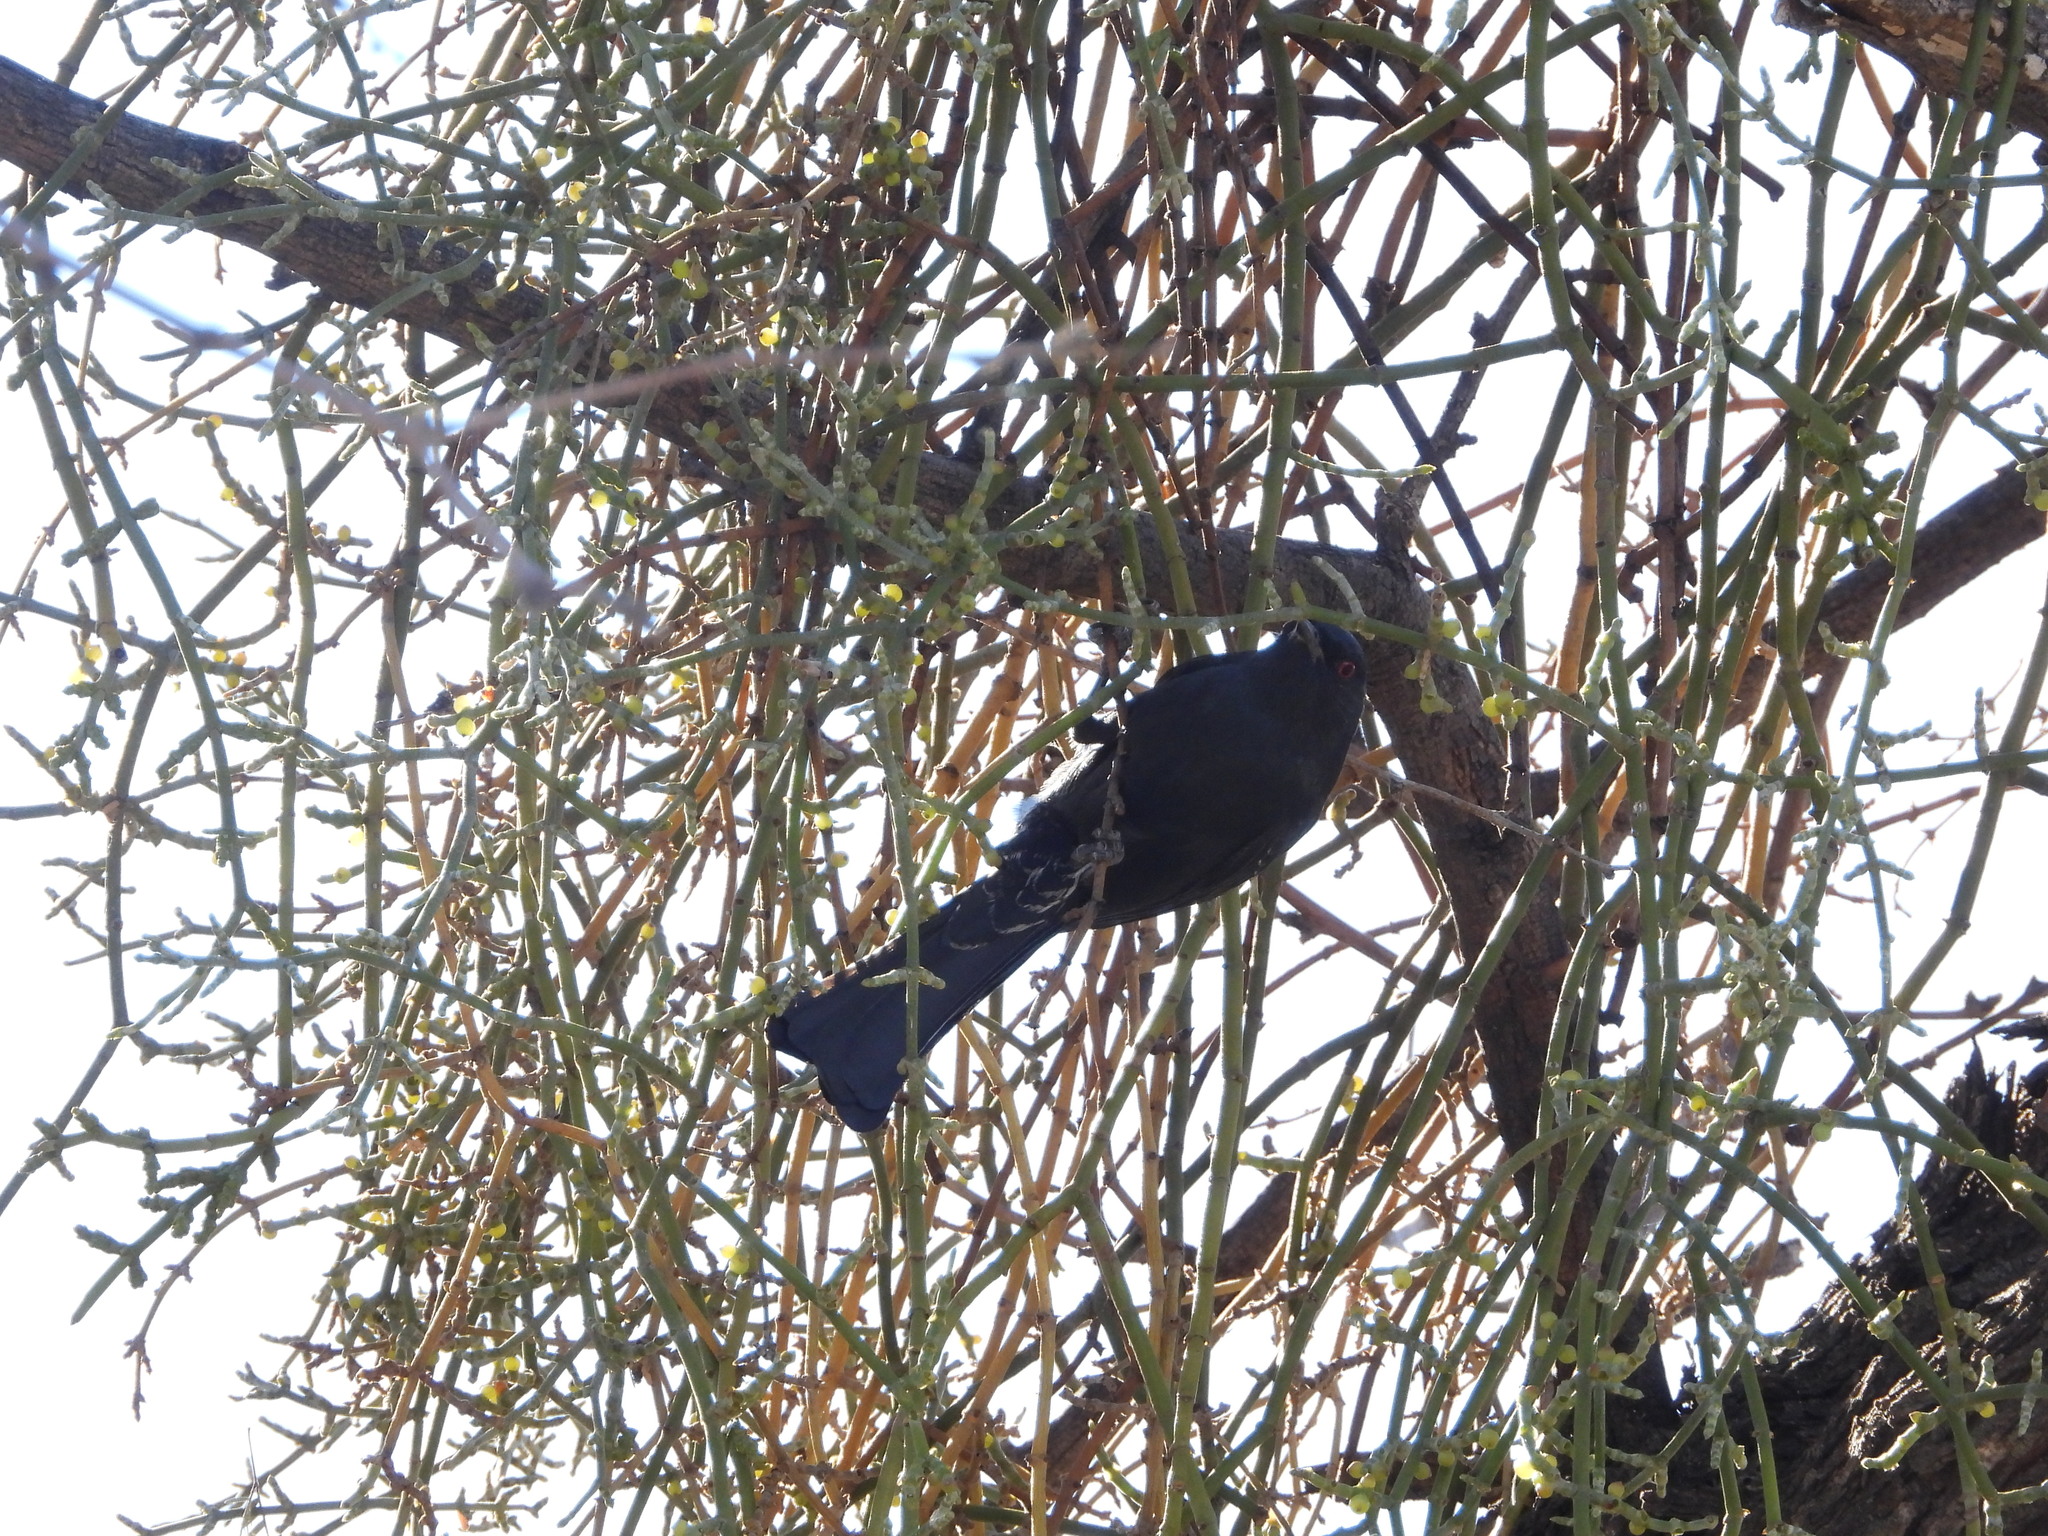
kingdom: Animalia
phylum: Chordata
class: Aves
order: Passeriformes
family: Ptilogonatidae
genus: Phainopepla
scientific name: Phainopepla nitens
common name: Phainopepla
